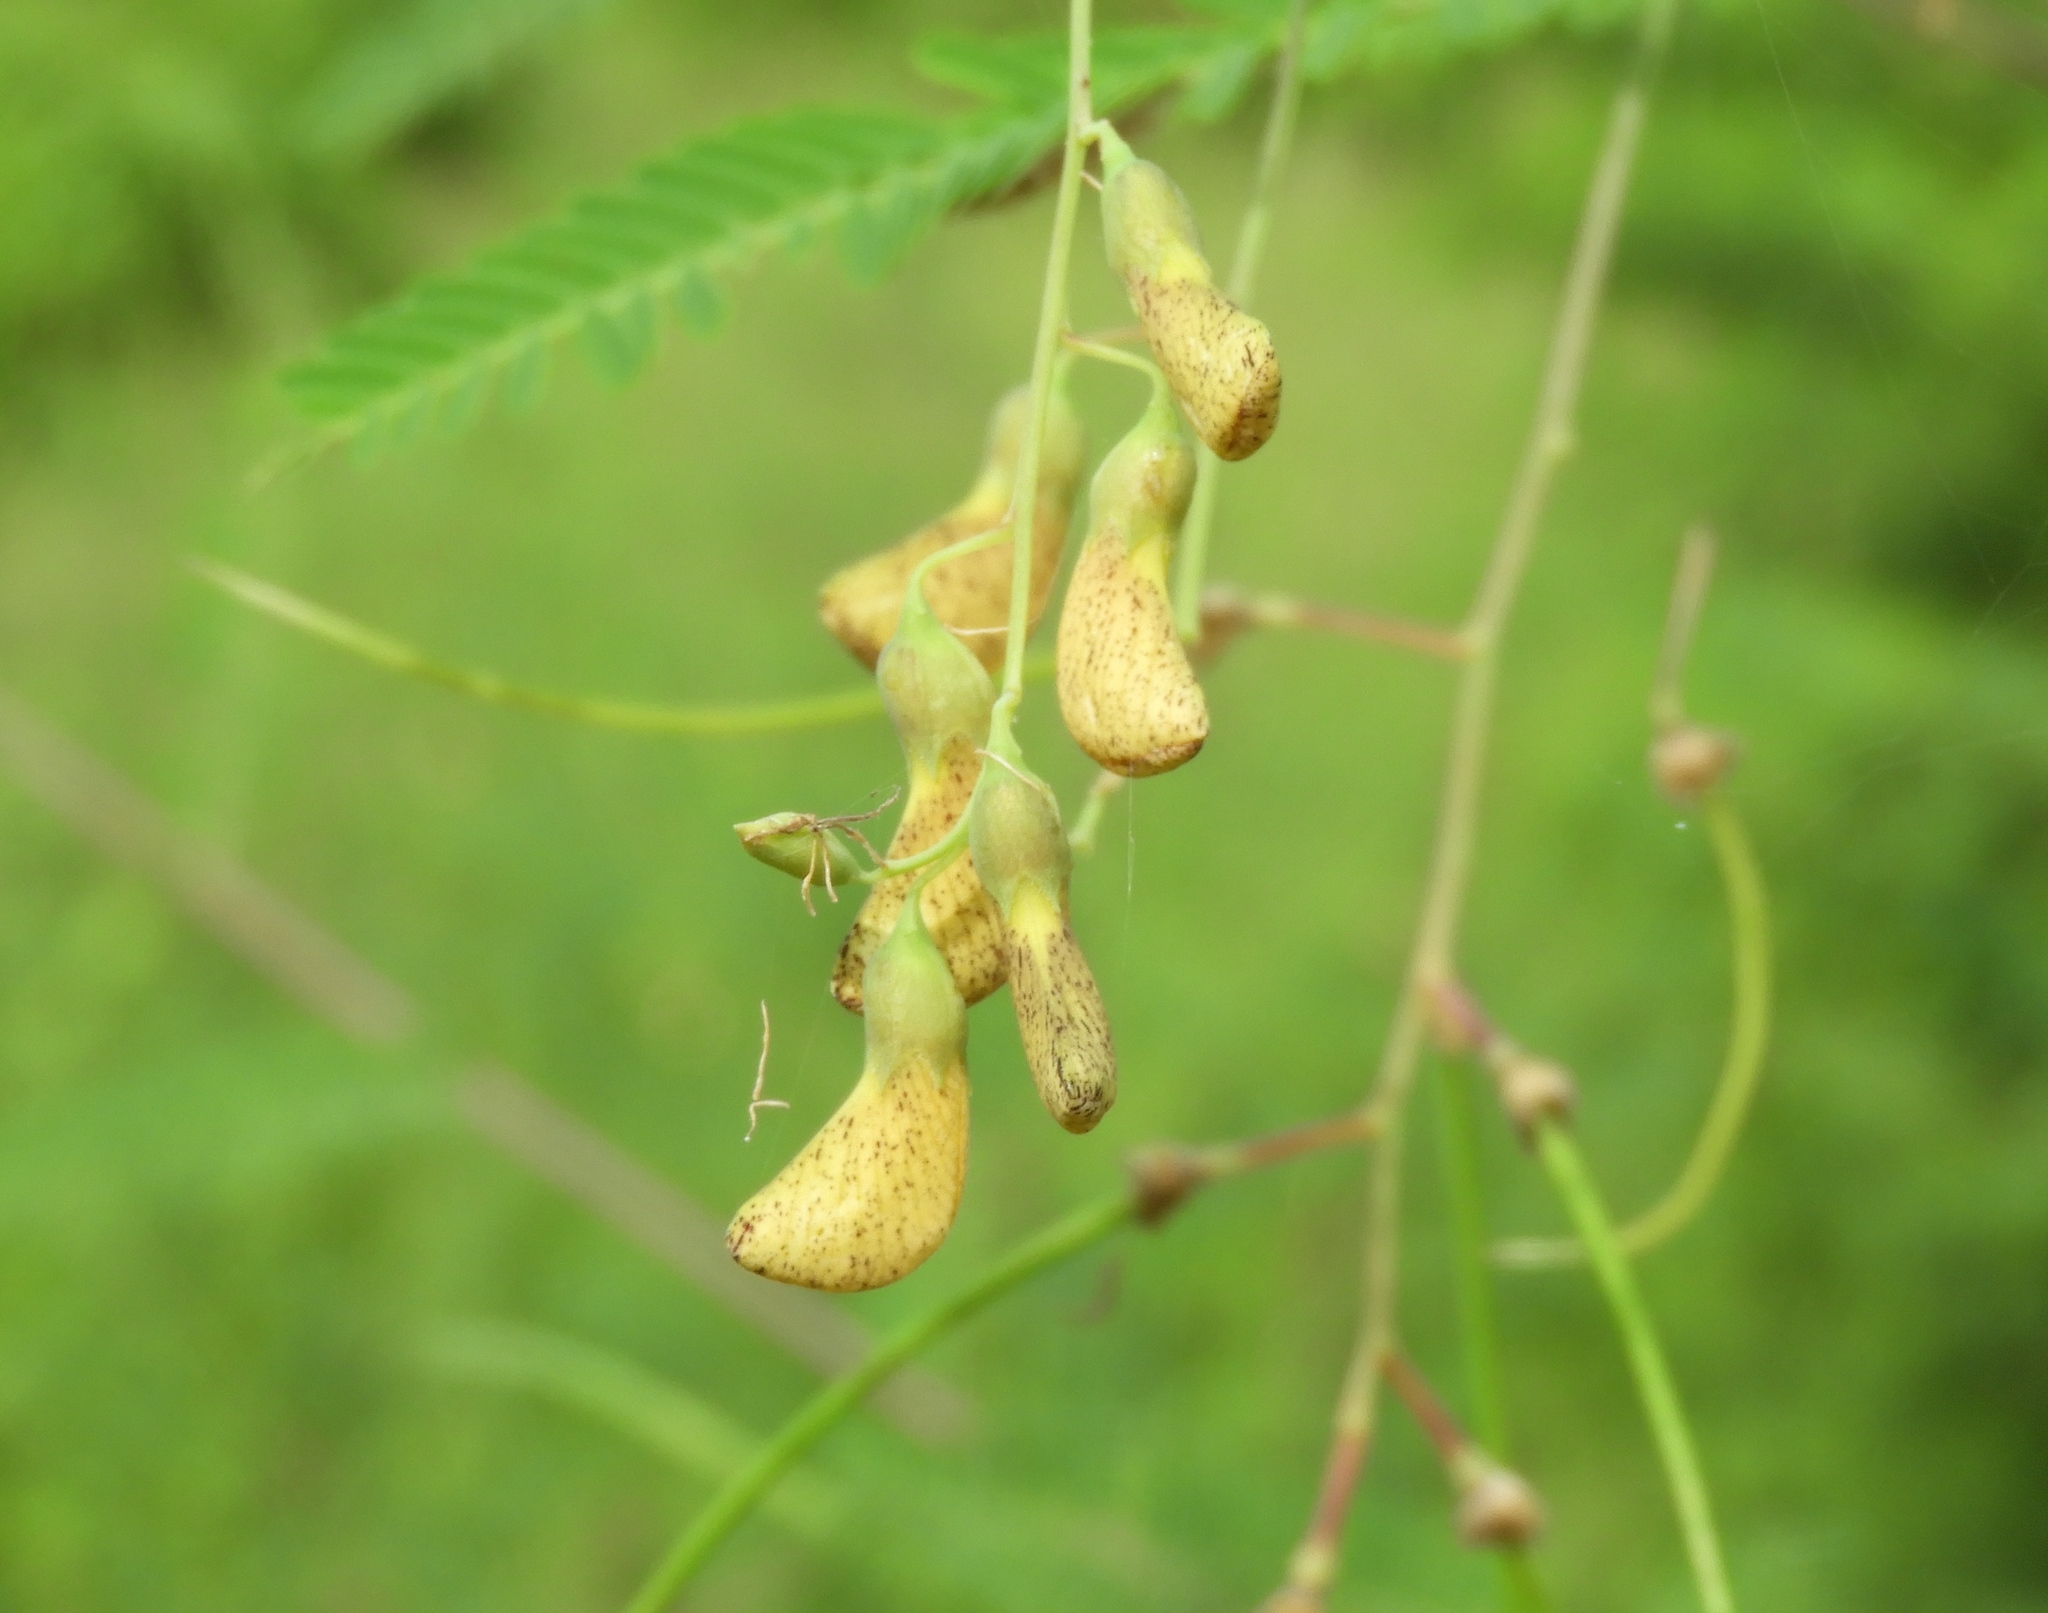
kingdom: Plantae
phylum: Tracheophyta
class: Magnoliopsida
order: Fabales
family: Fabaceae
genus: Sesbania
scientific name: Sesbania herbacea
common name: Bigpod sesbania
